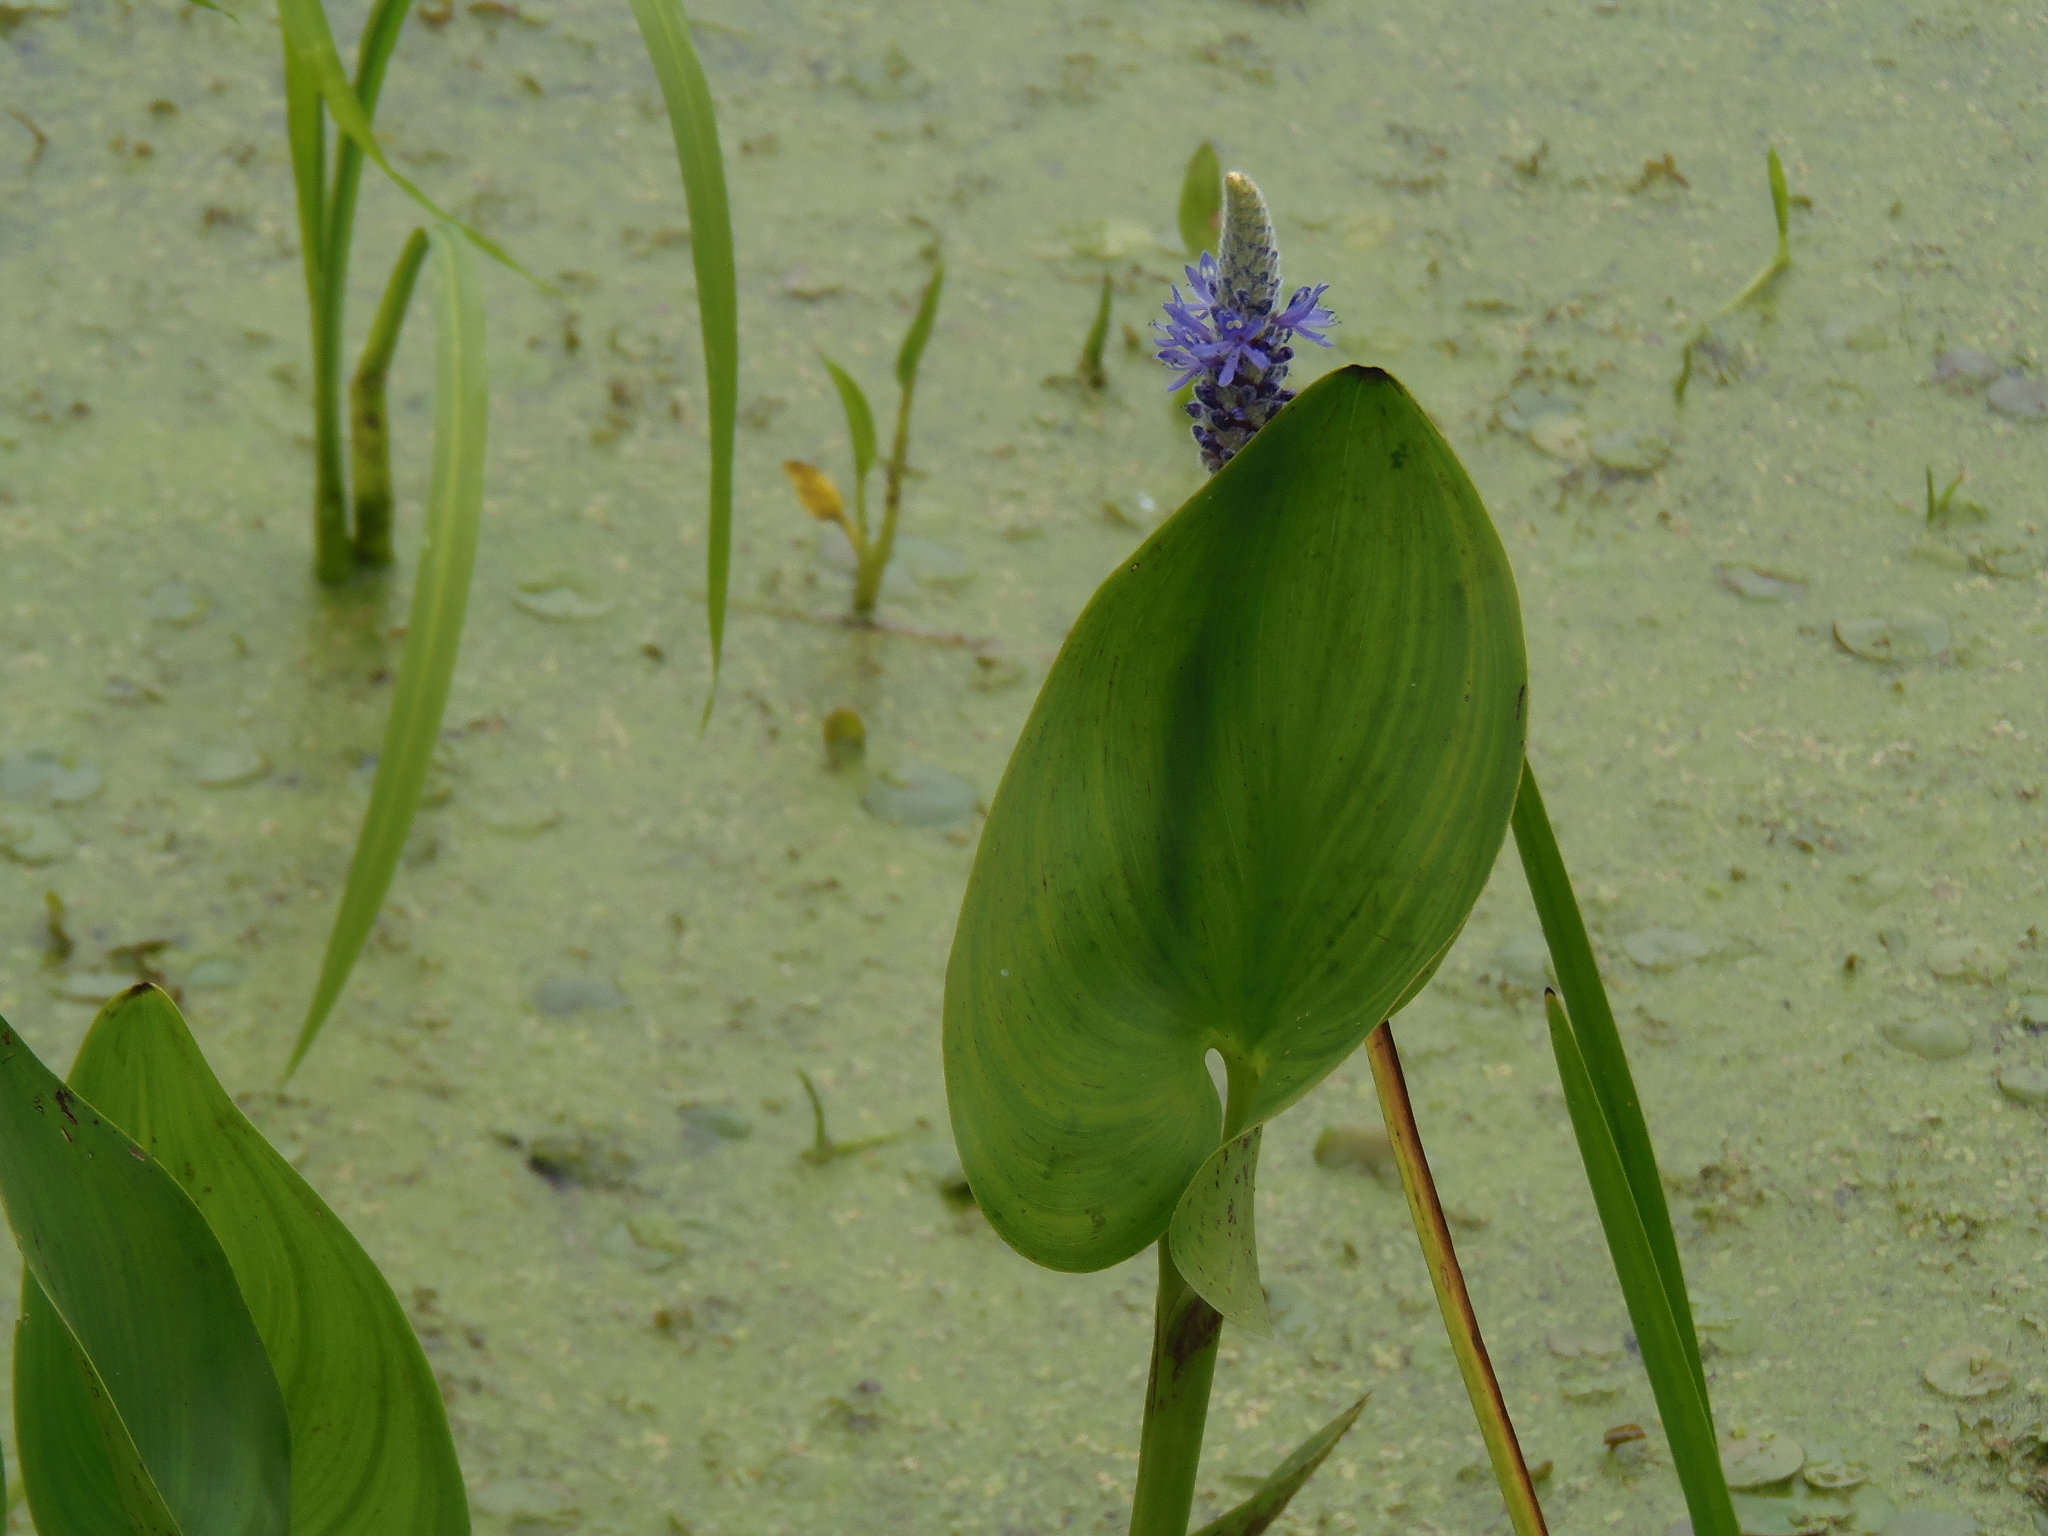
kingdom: Plantae
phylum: Tracheophyta
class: Liliopsida
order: Commelinales
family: Pontederiaceae
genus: Pontederia
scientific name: Pontederia cordata
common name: Pickerelweed
